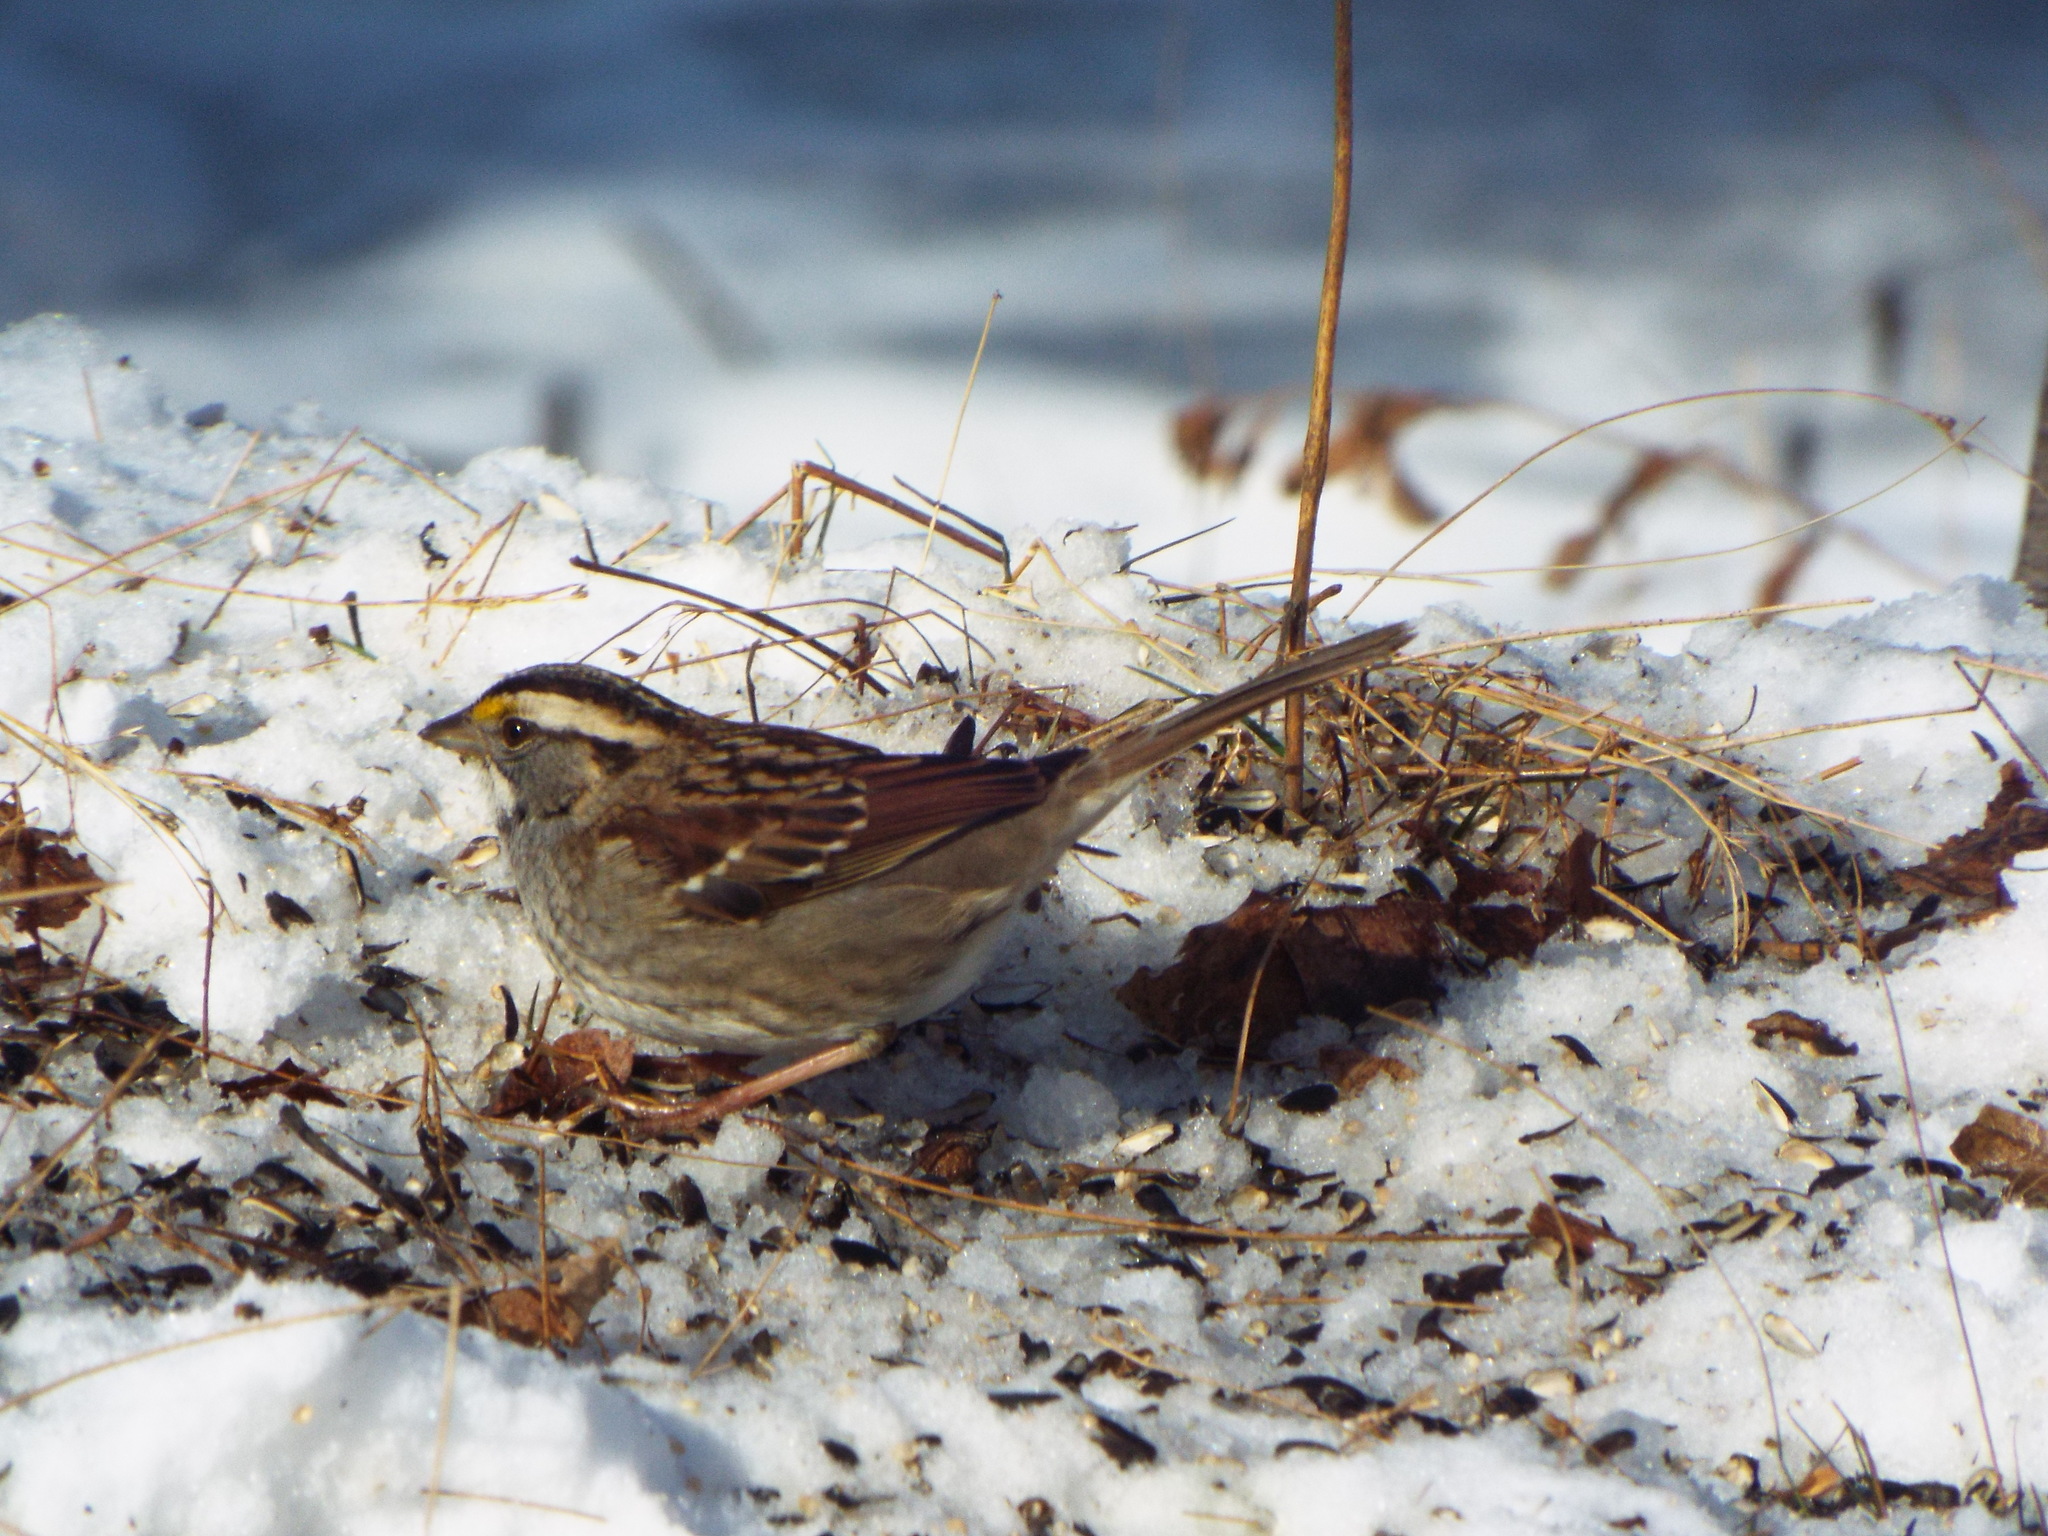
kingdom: Animalia
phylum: Chordata
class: Aves
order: Passeriformes
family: Passerellidae
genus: Zonotrichia
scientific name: Zonotrichia albicollis
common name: White-throated sparrow
